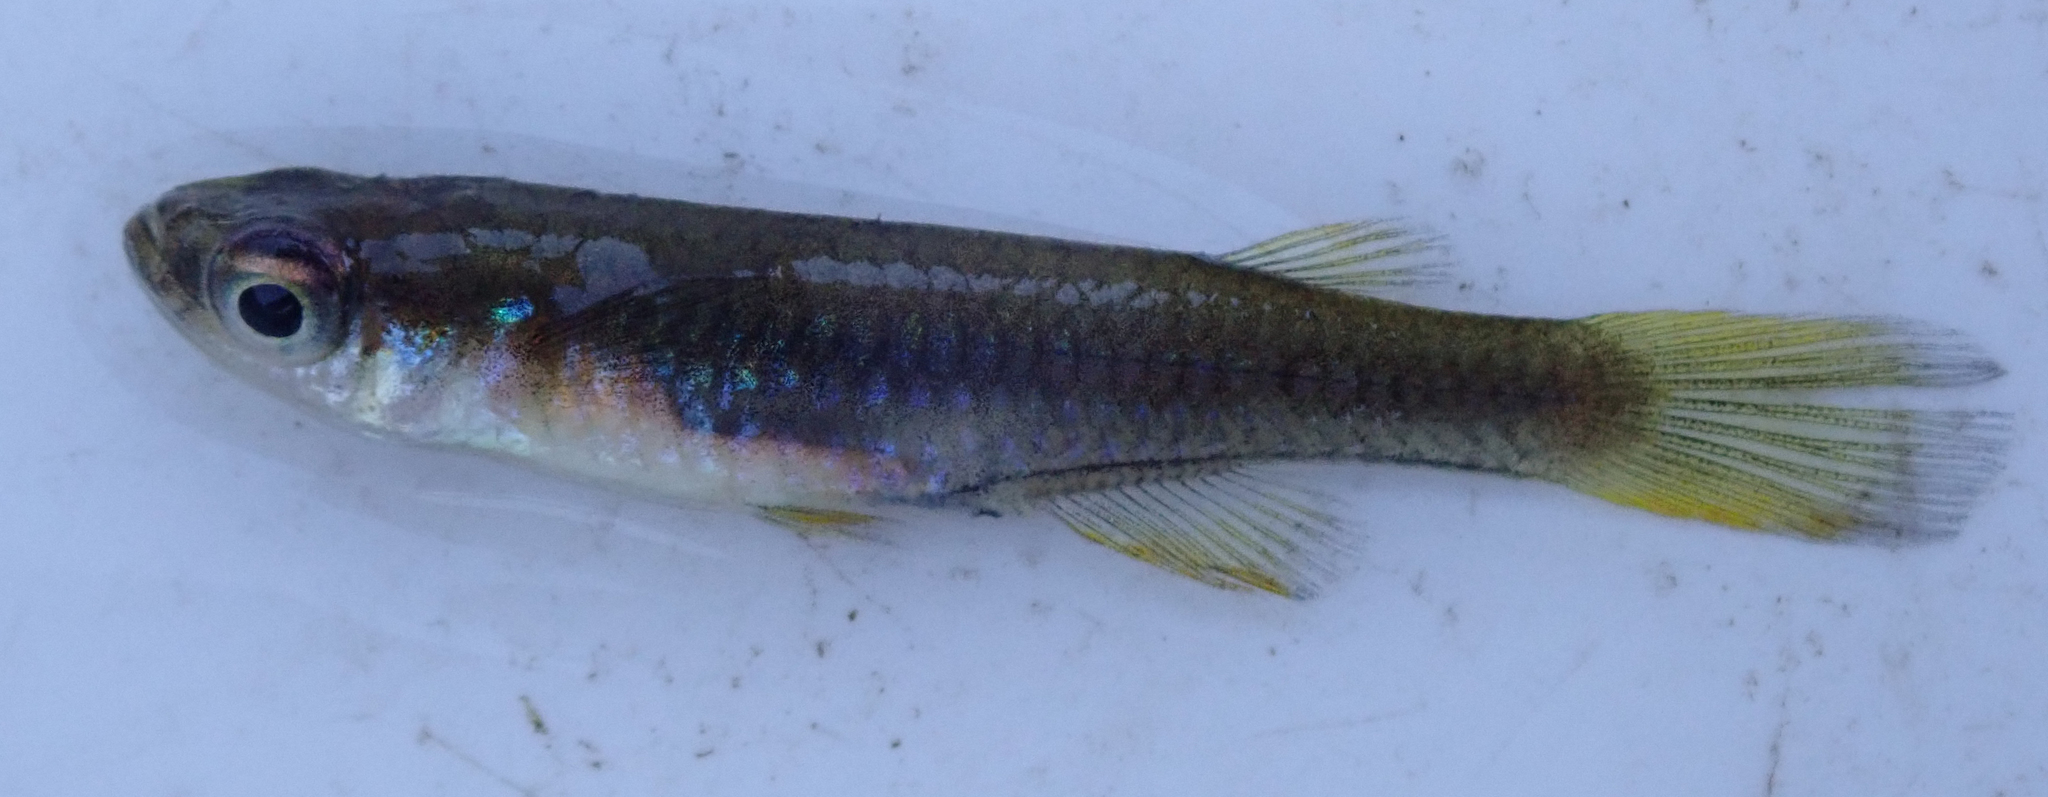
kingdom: Animalia
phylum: Chordata
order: Cyprinodontiformes
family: Poeciliidae
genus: Micropanchax
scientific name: Micropanchax johnstoni
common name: Johnston's topminnow
